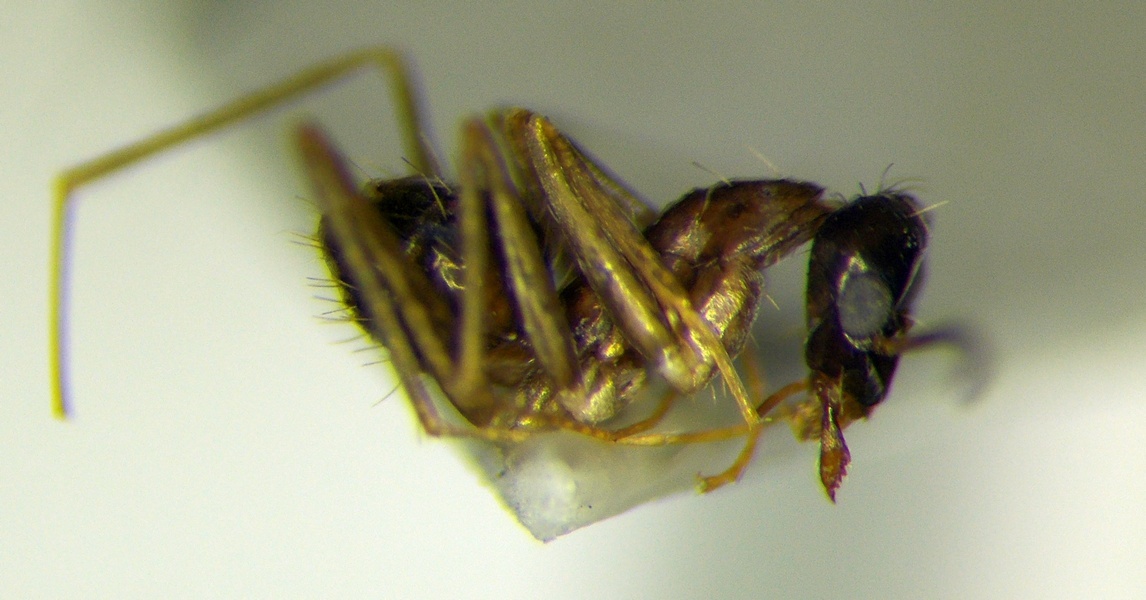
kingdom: Animalia
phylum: Arthropoda
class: Insecta
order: Hymenoptera
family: Formicidae
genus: Paratrechina
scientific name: Paratrechina longicornis
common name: Longhorned crazy ant
